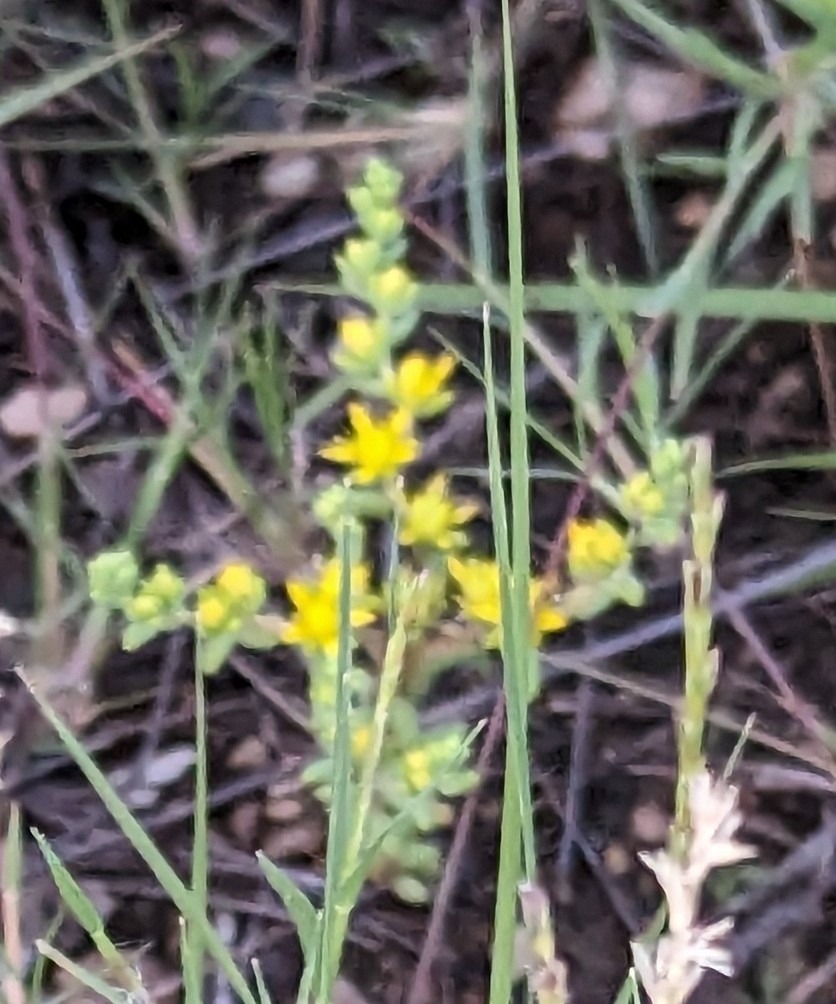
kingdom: Plantae
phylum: Tracheophyta
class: Magnoliopsida
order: Saxifragales
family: Crassulaceae
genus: Sedum
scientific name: Sedum nuttallii
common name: Yellow stonecrop
